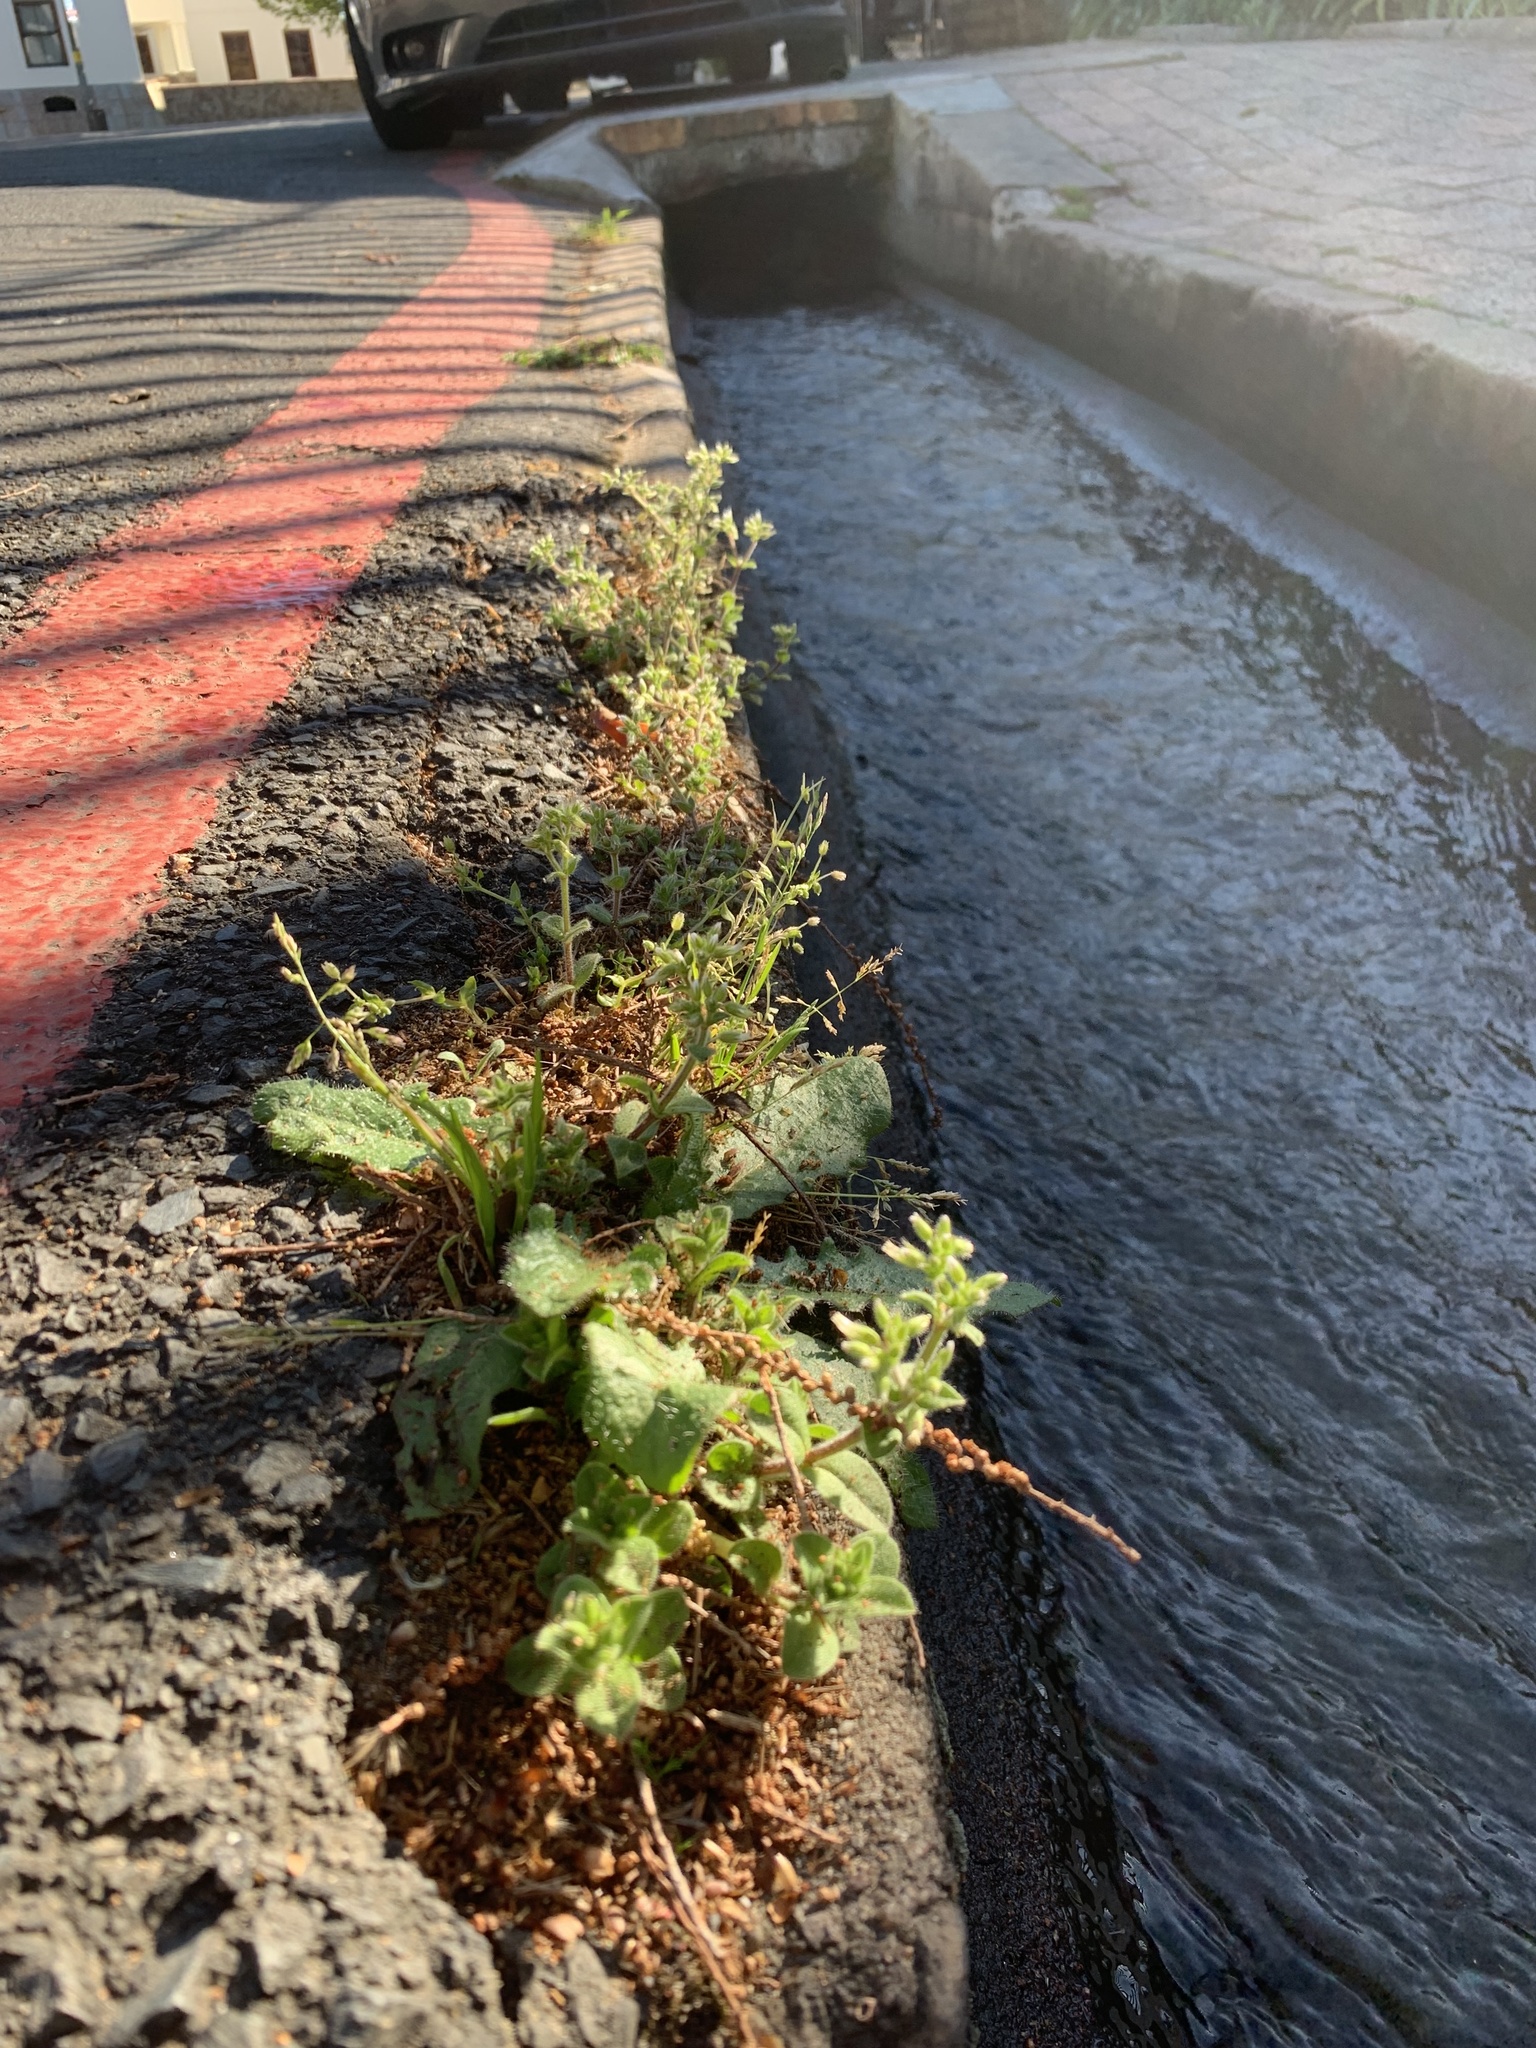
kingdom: Plantae
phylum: Tracheophyta
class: Magnoliopsida
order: Caryophyllales
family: Caryophyllaceae
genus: Cerastium
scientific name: Cerastium glomeratum
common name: Sticky chickweed
